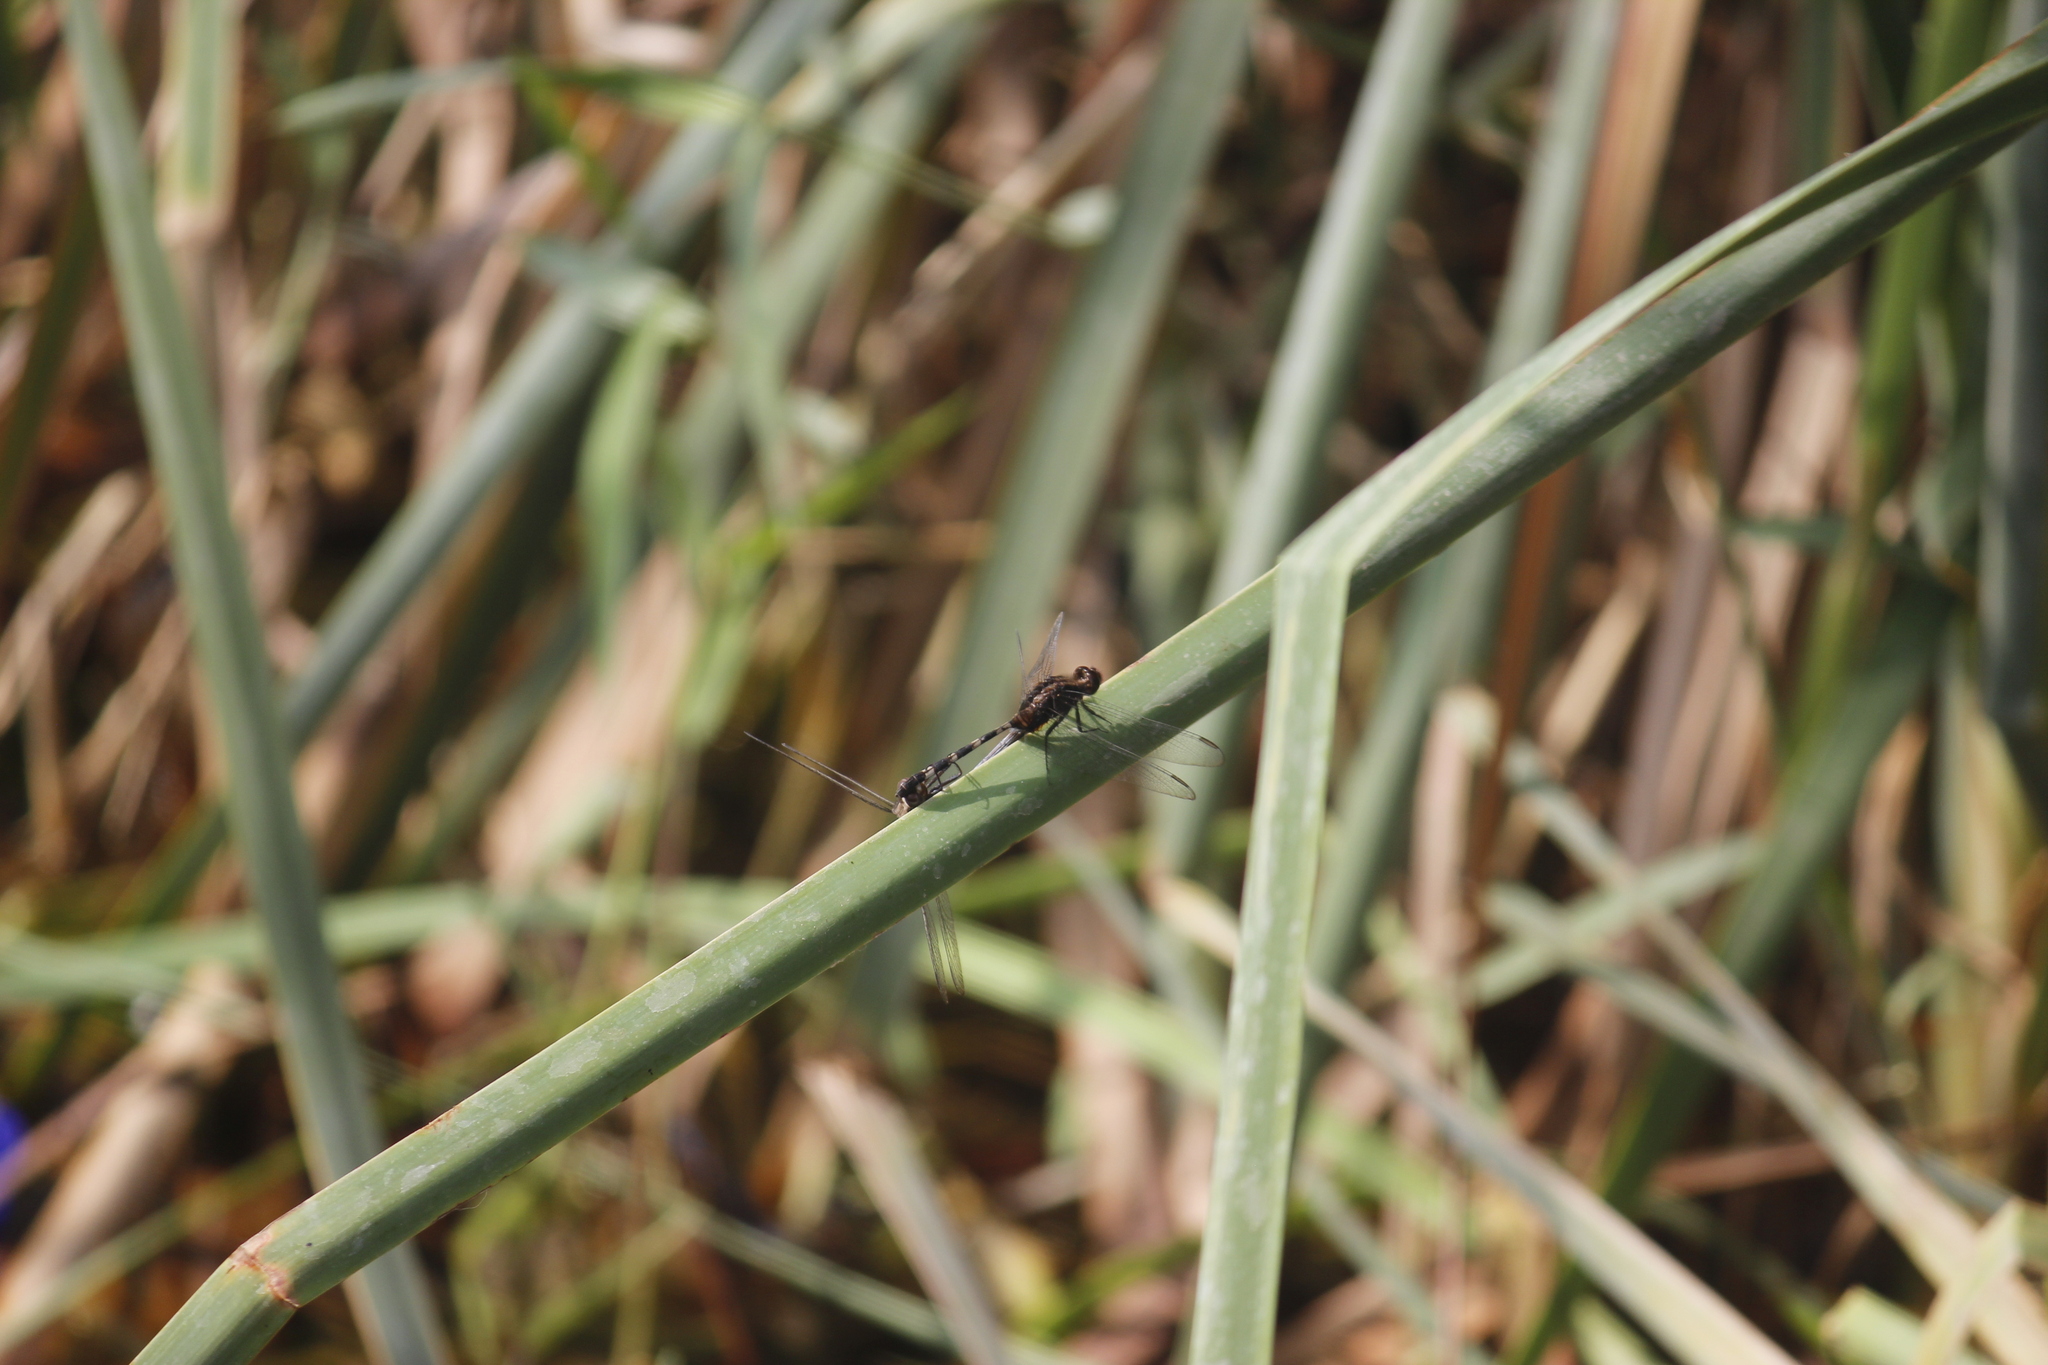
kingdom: Animalia
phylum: Arthropoda
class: Insecta
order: Odonata
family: Libellulidae
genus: Erythemis
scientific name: Erythemis plebeja
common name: Pin-tailed pondhawk
